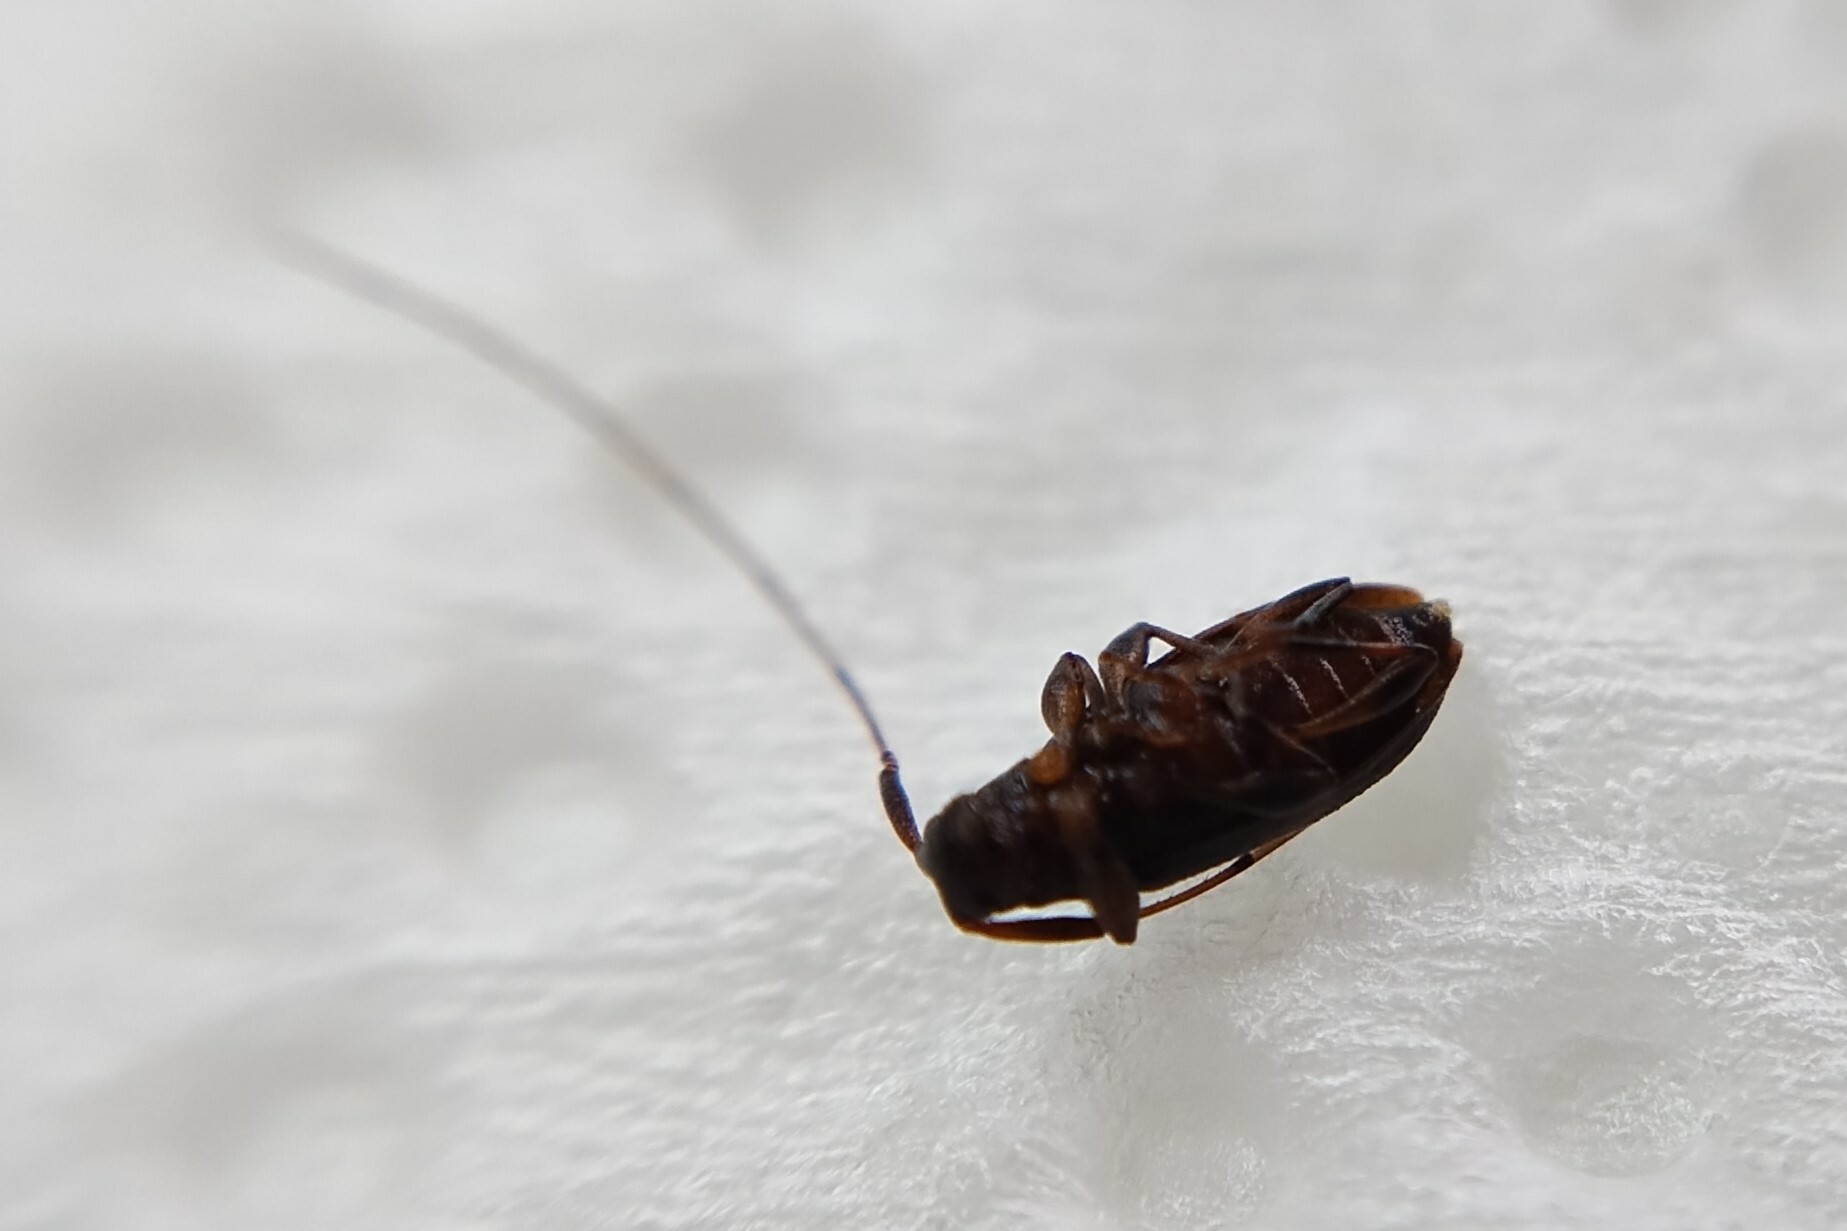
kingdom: Animalia
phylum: Arthropoda
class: Insecta
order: Coleoptera
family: Cerambycidae
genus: Urgleptes
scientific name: Urgleptes querci
